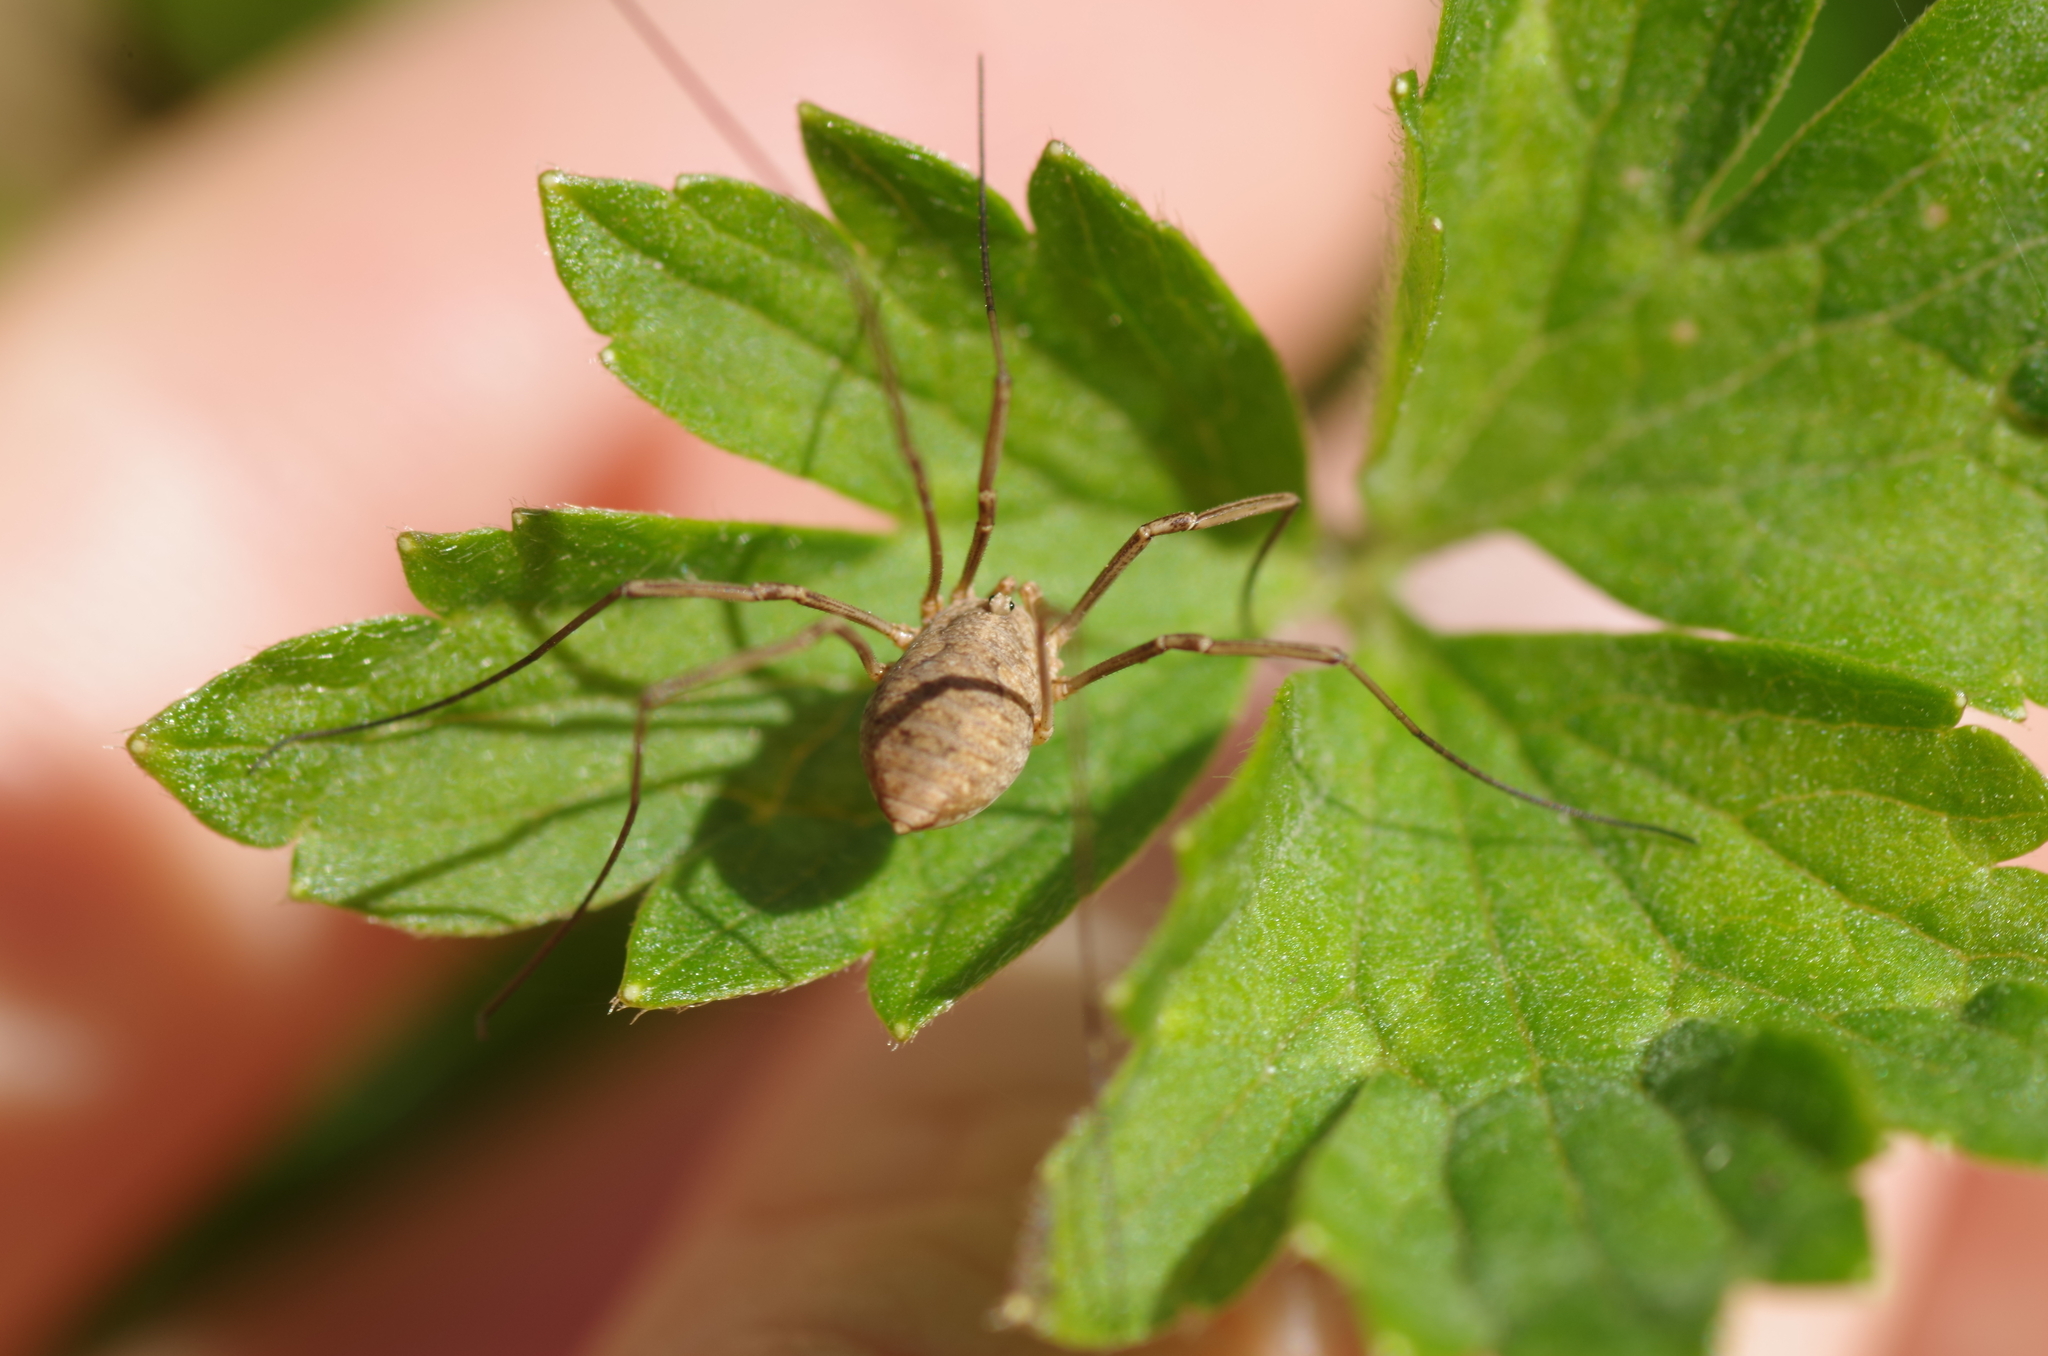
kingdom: Animalia
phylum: Arthropoda
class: Arachnida
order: Opiliones
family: Phalangiidae
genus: Phalangium
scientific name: Phalangium opilio
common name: Daddy longleg
